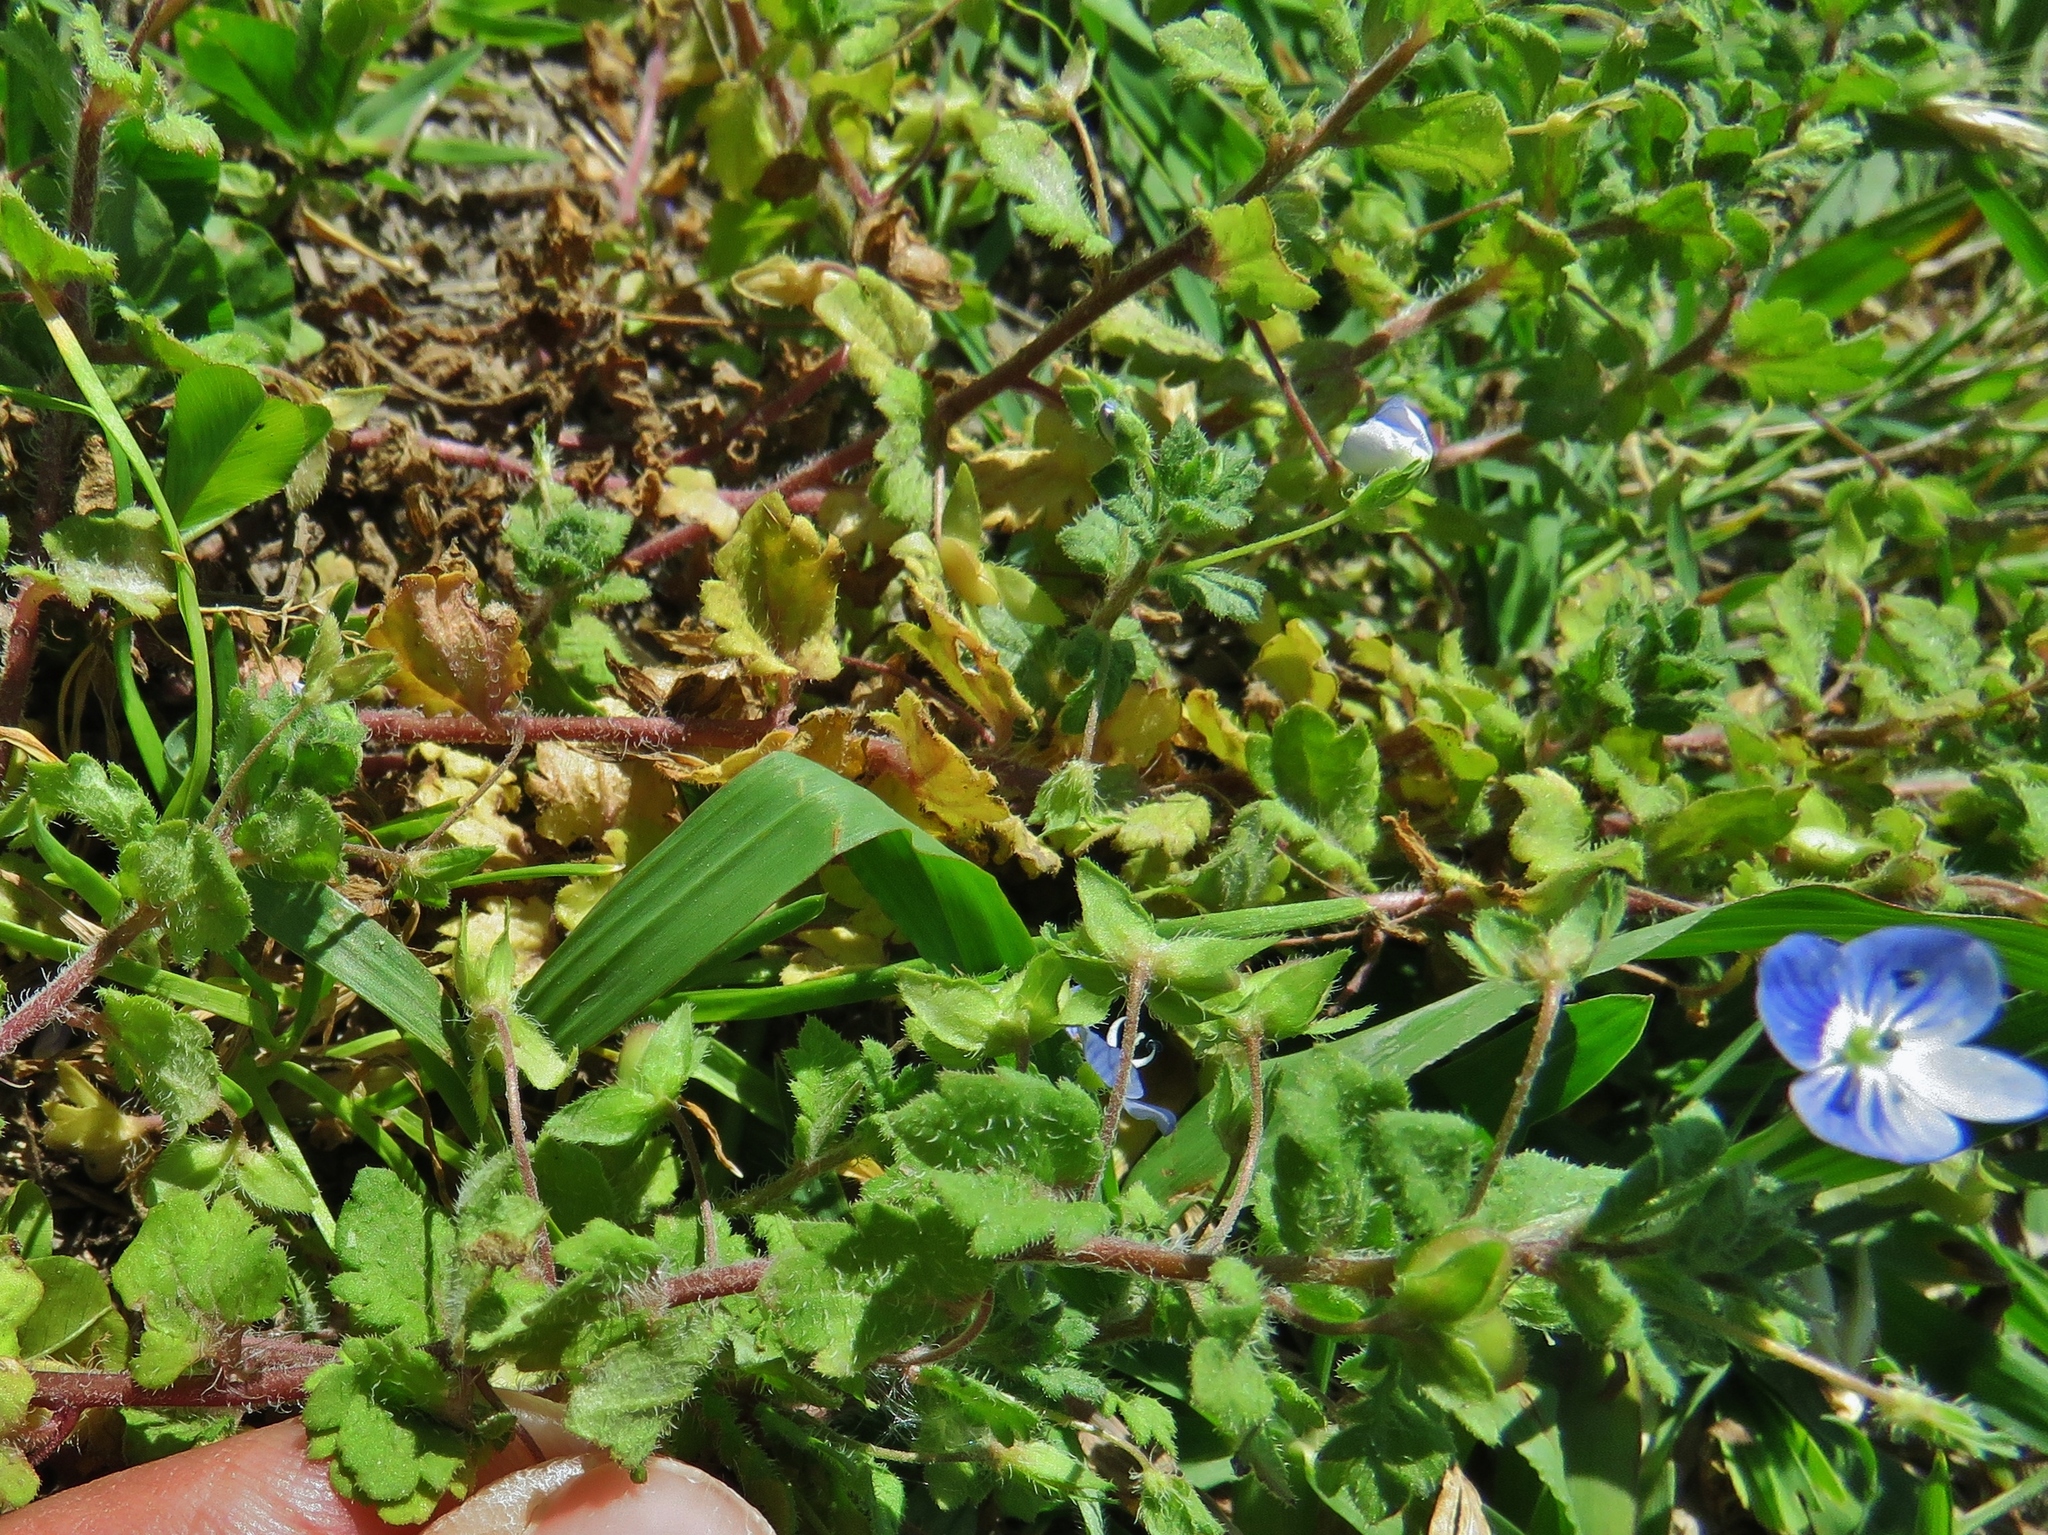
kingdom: Plantae
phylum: Tracheophyta
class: Magnoliopsida
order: Lamiales
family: Plantaginaceae
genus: Veronica
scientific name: Veronica persica
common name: Common field-speedwell
